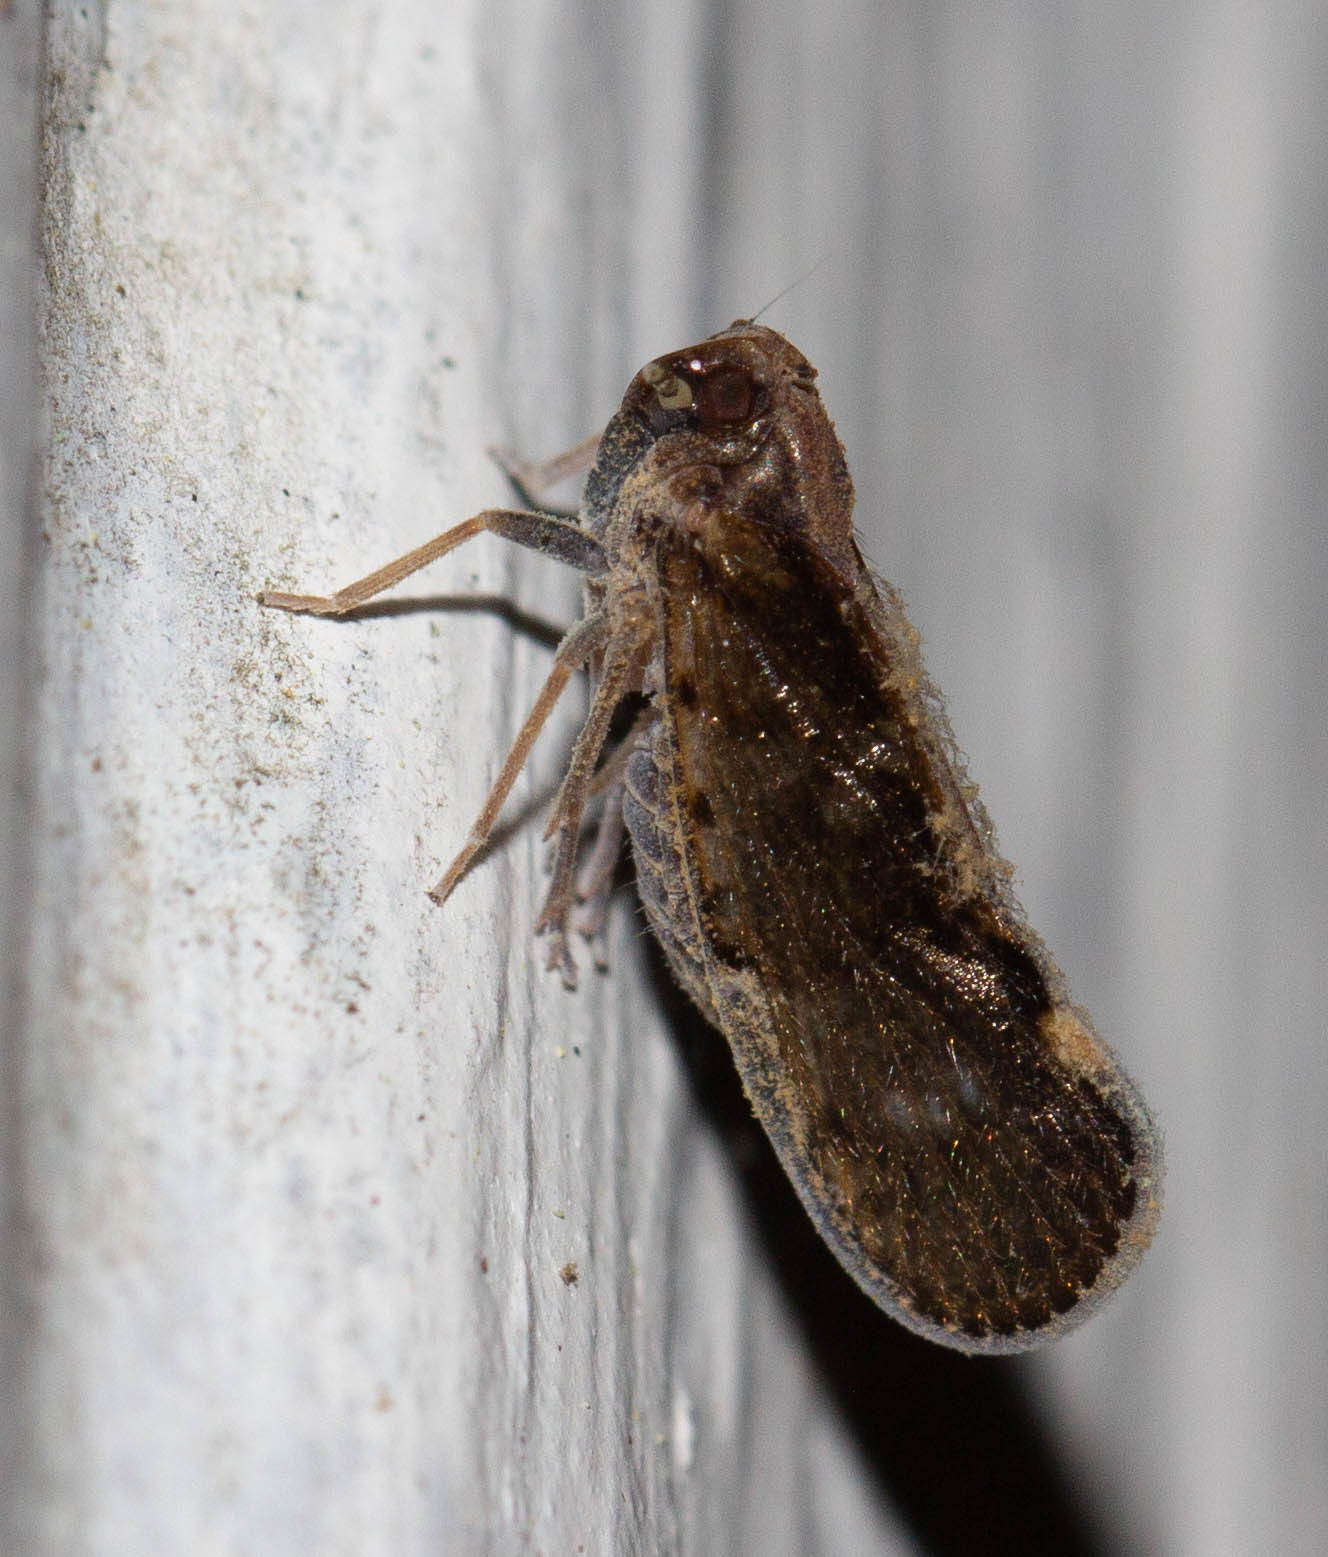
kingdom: Animalia
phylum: Arthropoda
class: Insecta
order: Hemiptera
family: Cixiidae
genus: Pintalia
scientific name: Pintalia vibex
